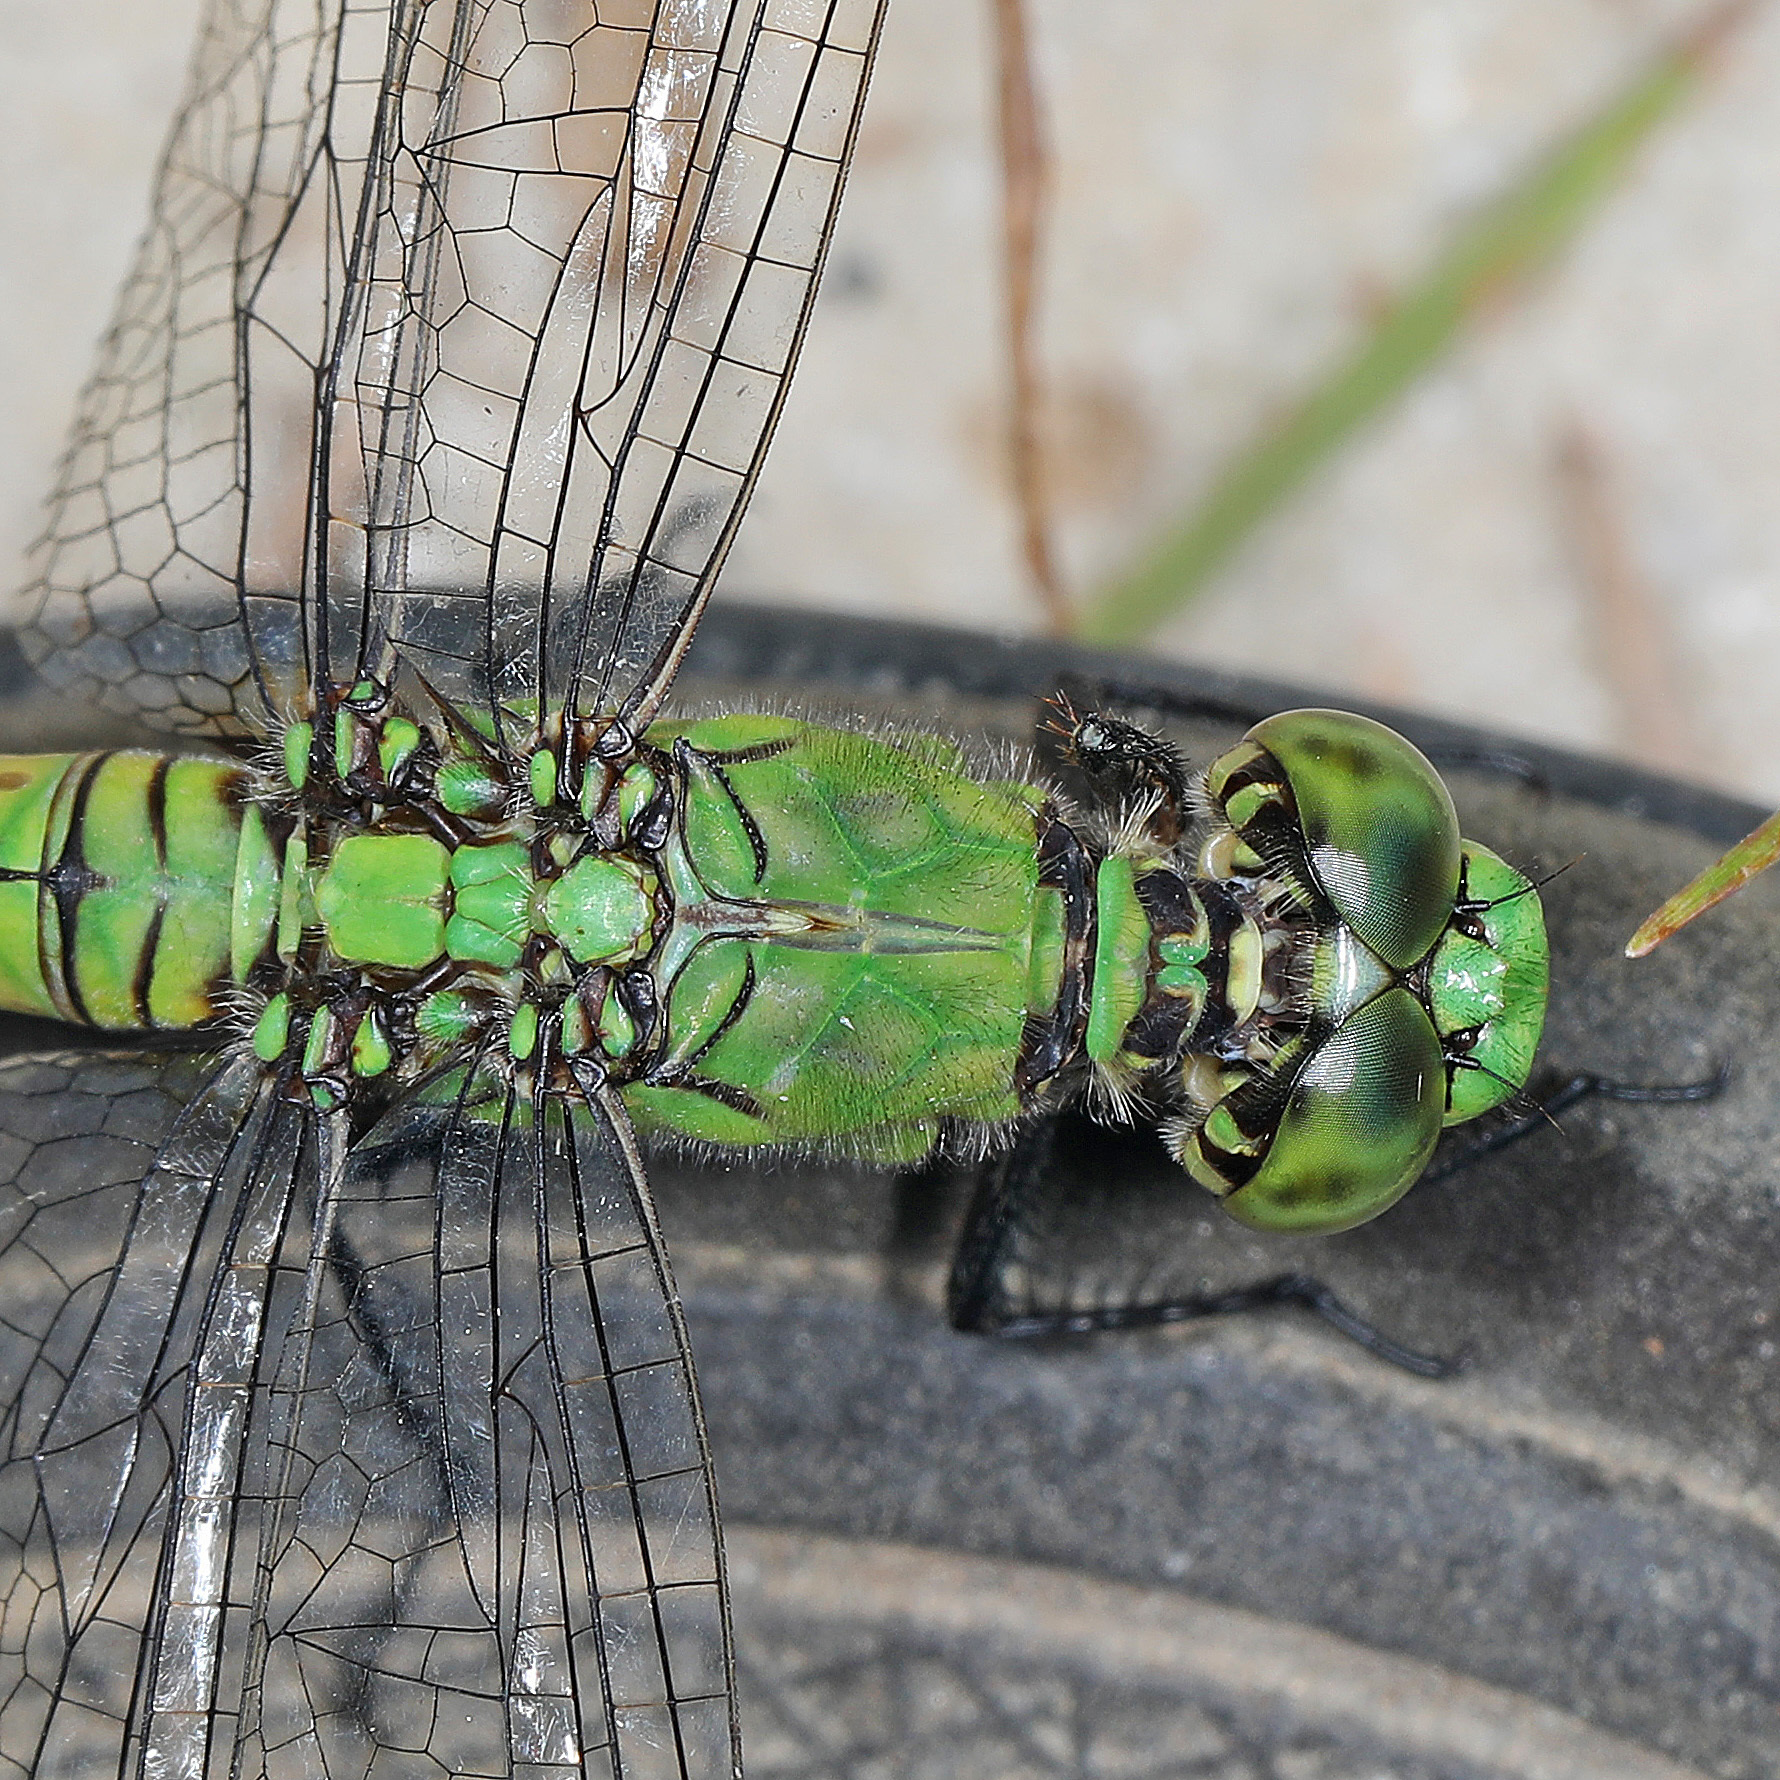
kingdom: Animalia
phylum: Arthropoda
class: Insecta
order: Odonata
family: Libellulidae
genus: Erythemis
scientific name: Erythemis simplicicollis
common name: Eastern pondhawk
